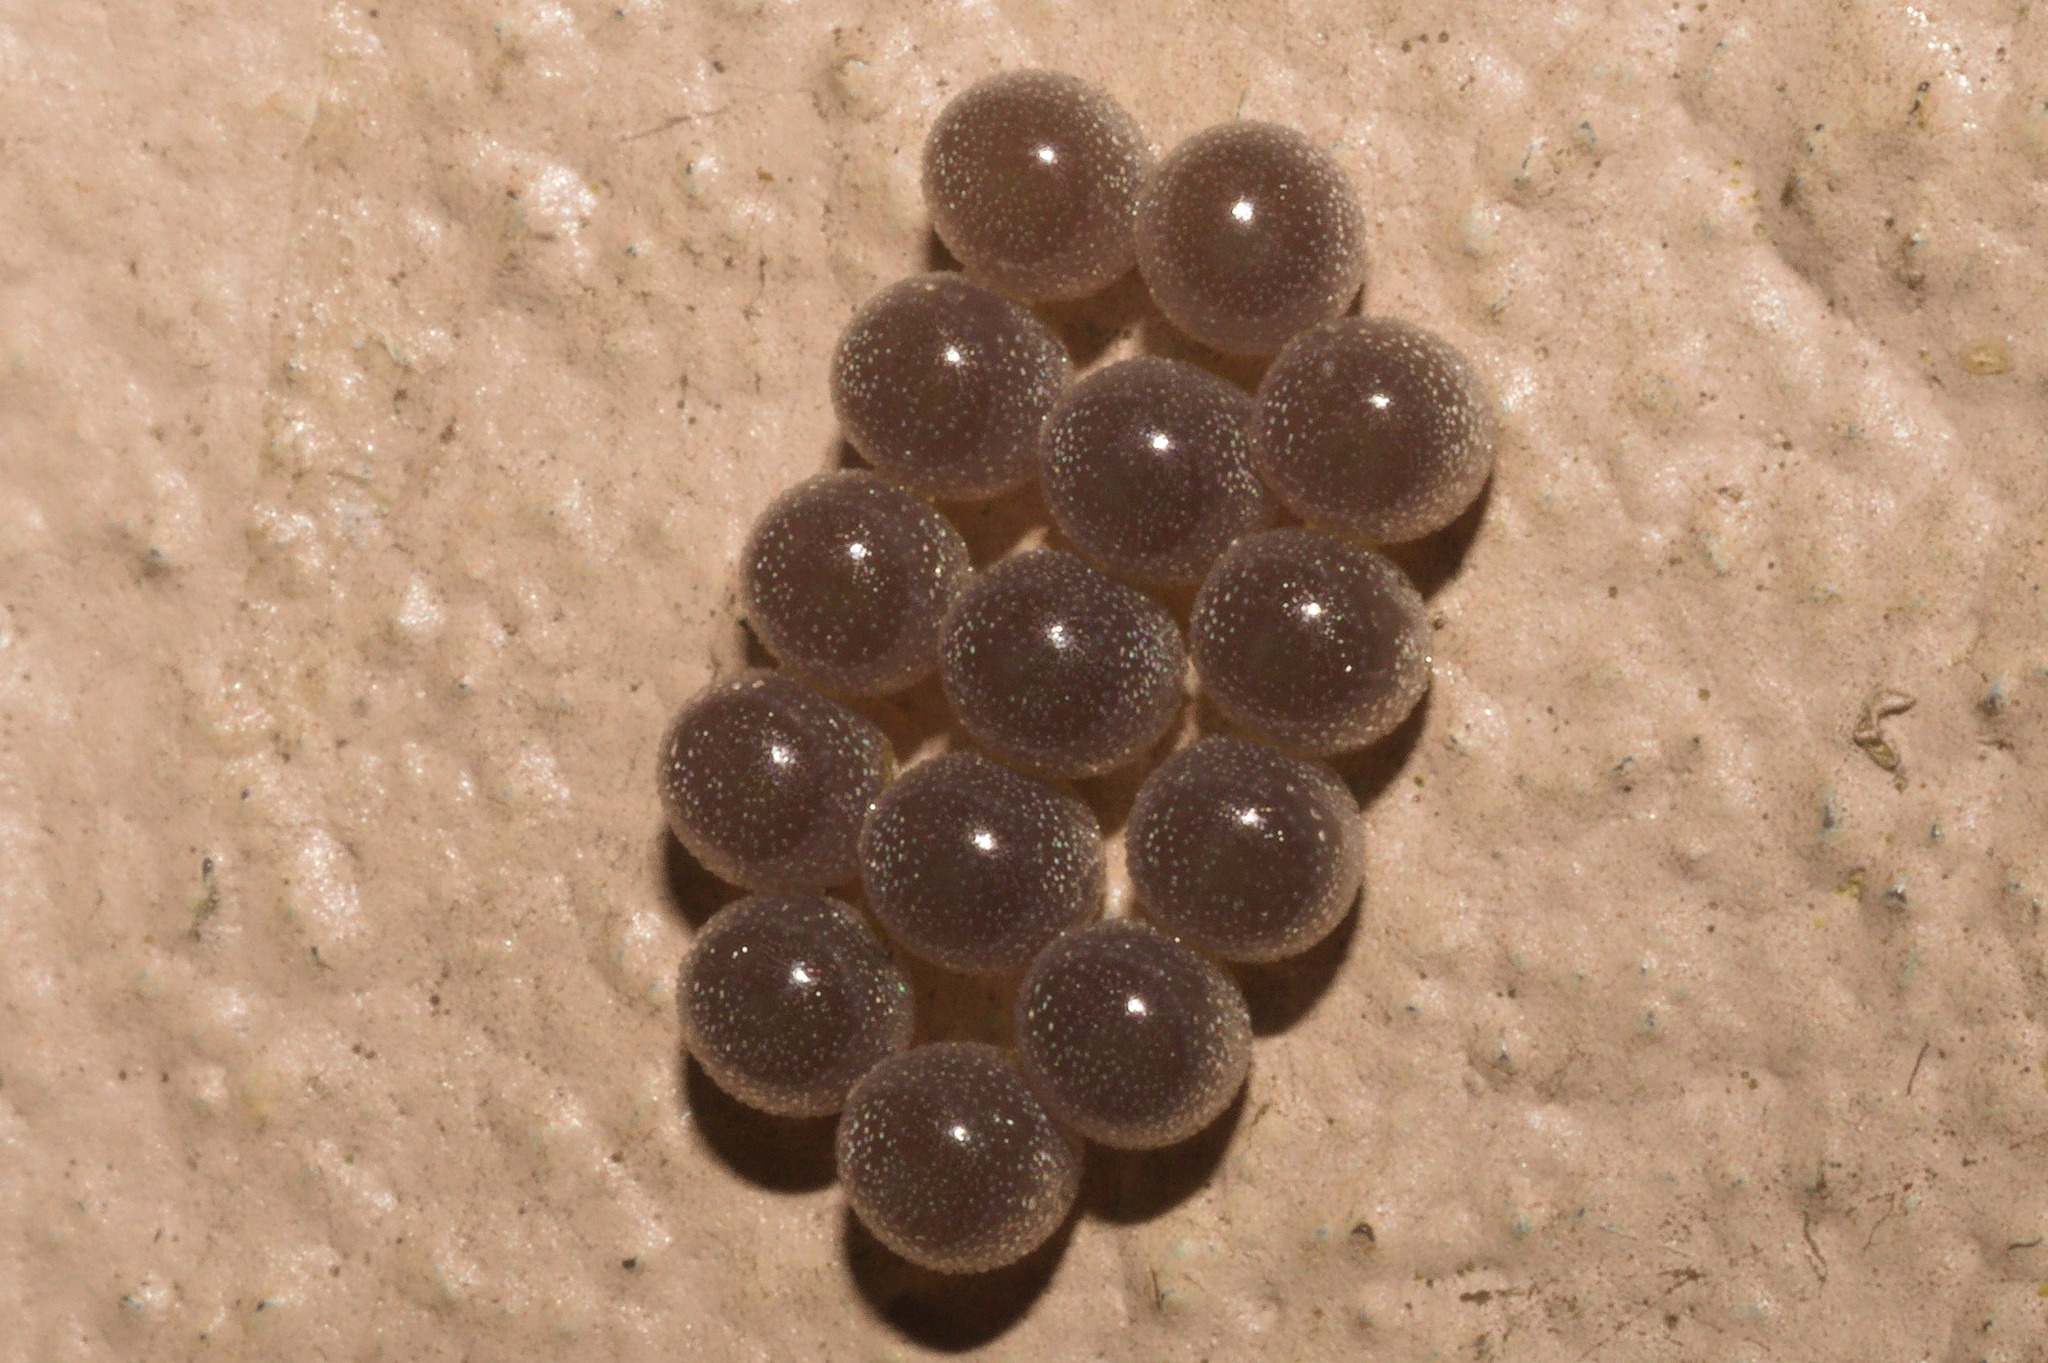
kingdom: Animalia
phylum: Arthropoda
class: Insecta
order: Hemiptera
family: Pentatomidae
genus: Edessa
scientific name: Edessa
